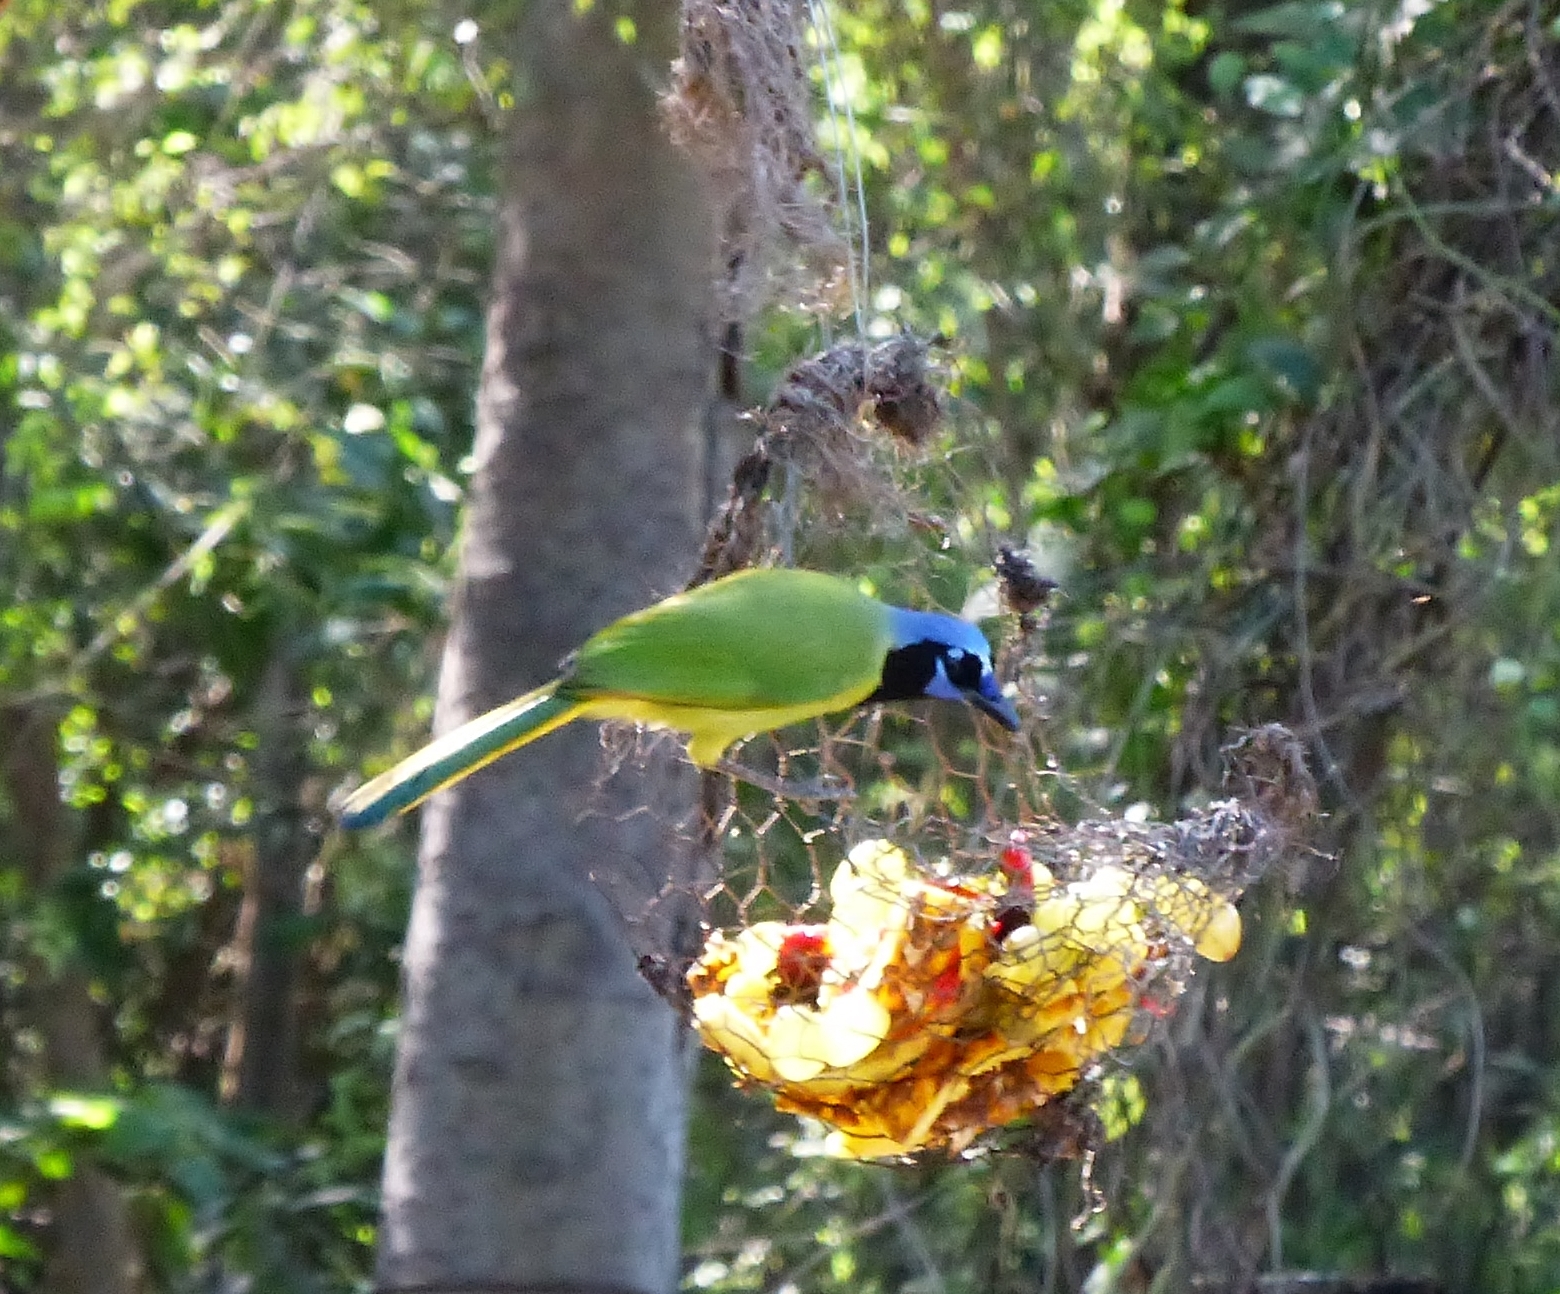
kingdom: Animalia
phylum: Chordata
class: Aves
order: Passeriformes
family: Corvidae
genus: Cyanocorax
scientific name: Cyanocorax yncas
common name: Green jay
